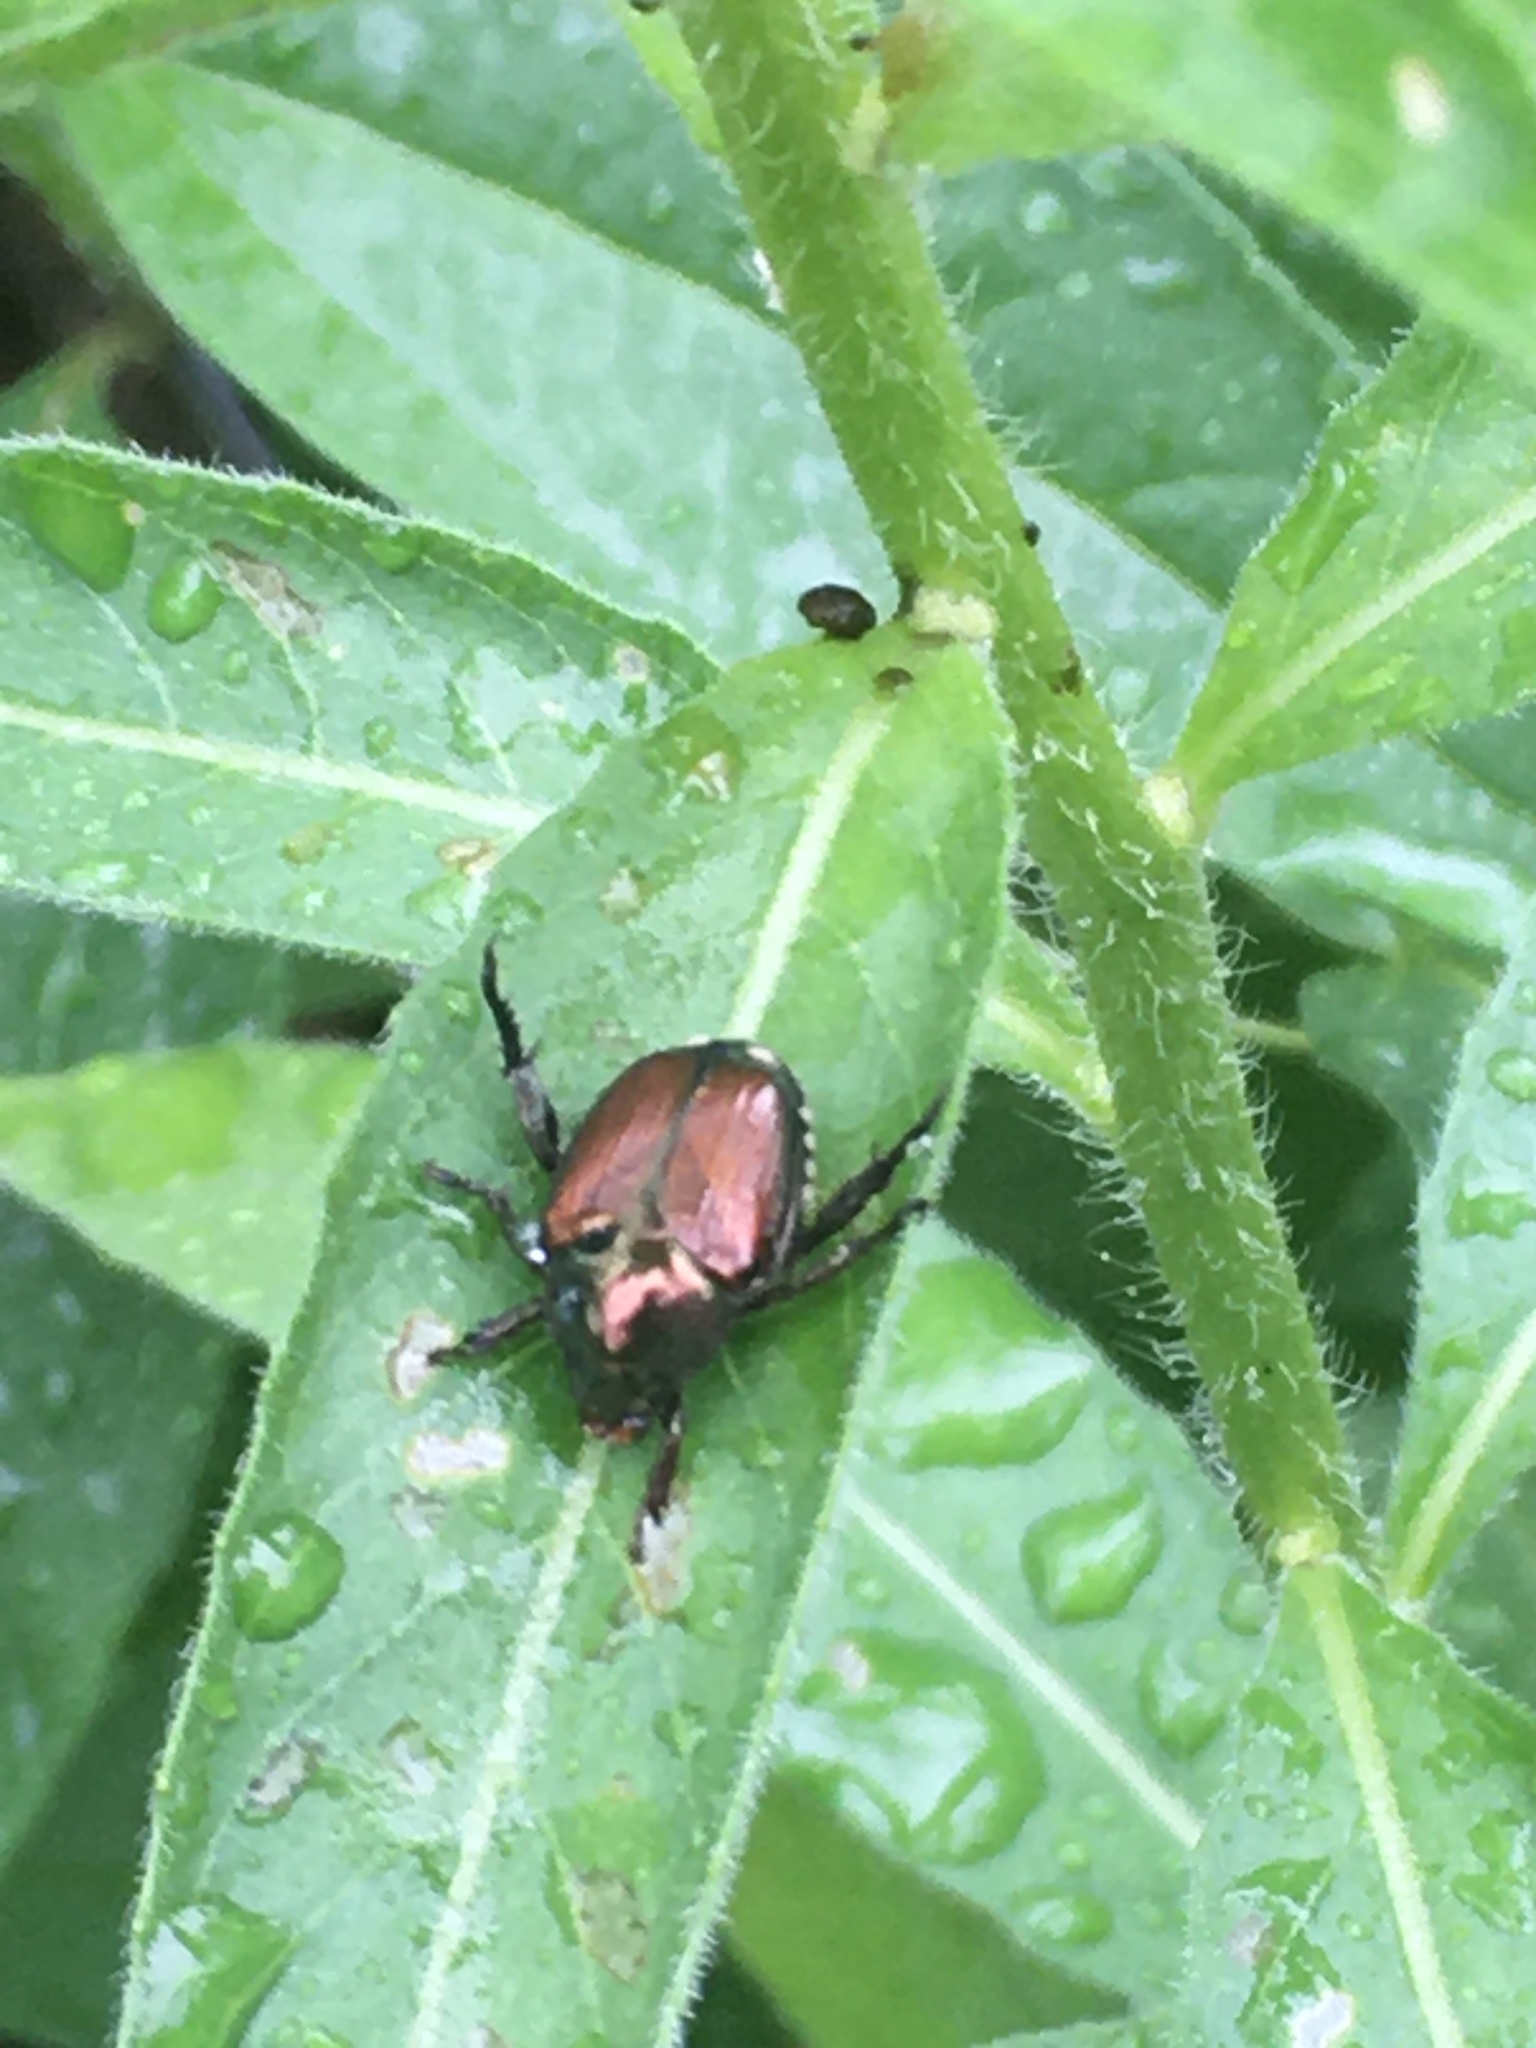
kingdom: Animalia
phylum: Arthropoda
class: Insecta
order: Coleoptera
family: Scarabaeidae
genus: Popillia
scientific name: Popillia japonica
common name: Japanese beetle
